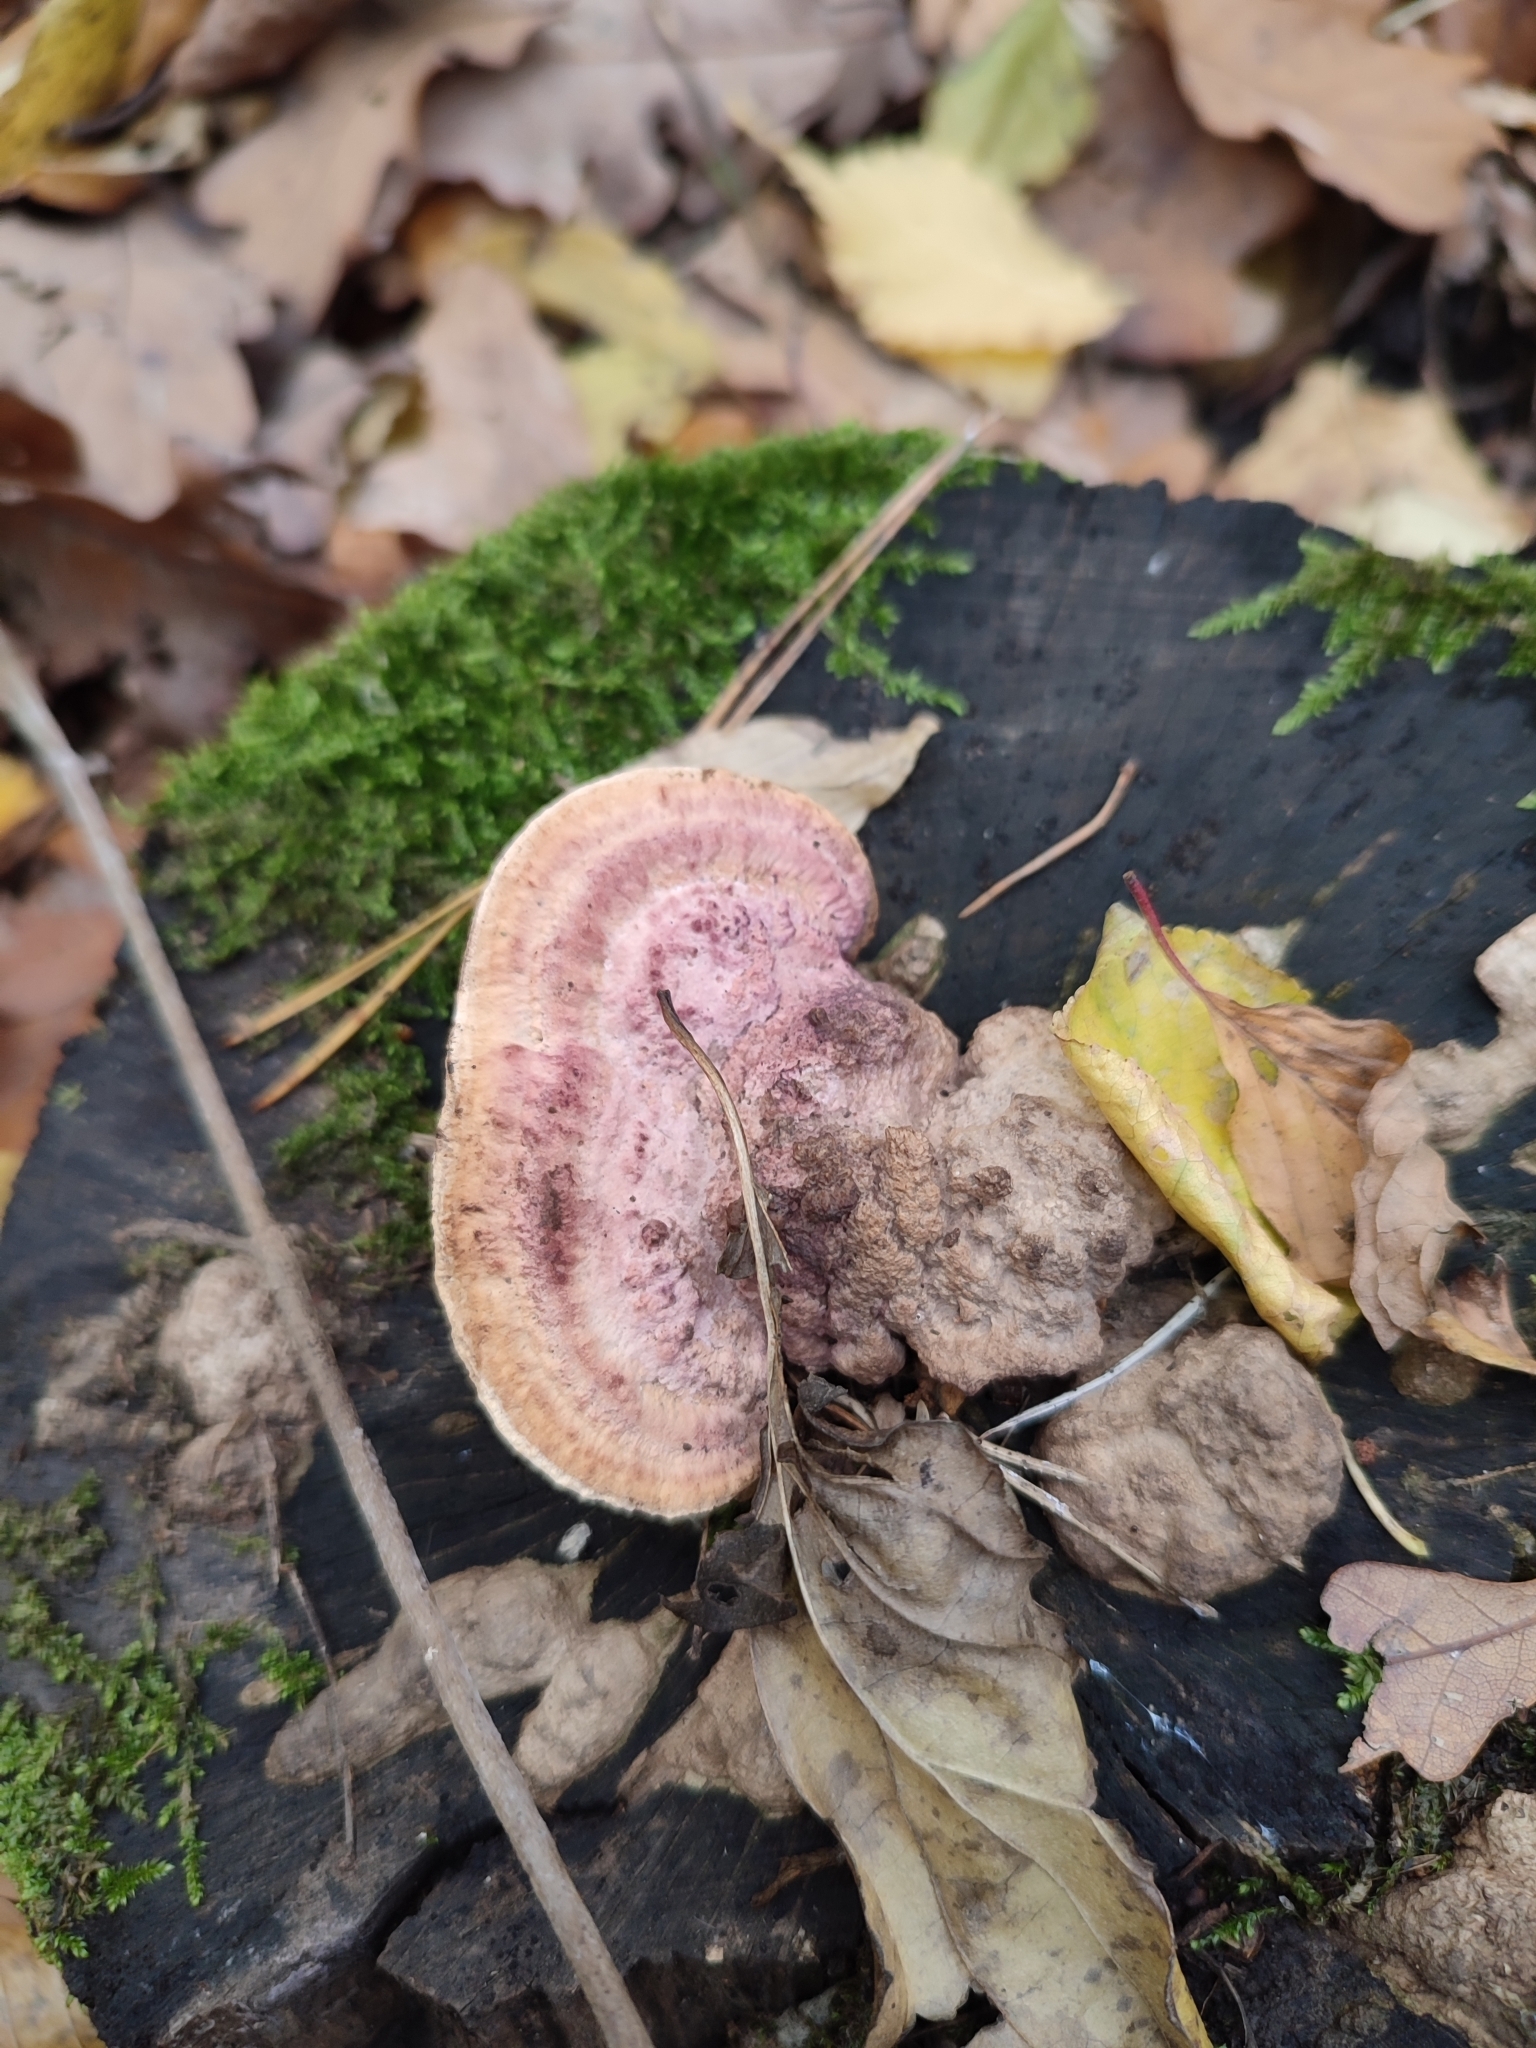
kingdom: Fungi
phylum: Basidiomycota
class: Agaricomycetes
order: Polyporales
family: Fomitopsidaceae
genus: Fomitopsis
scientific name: Fomitopsis
